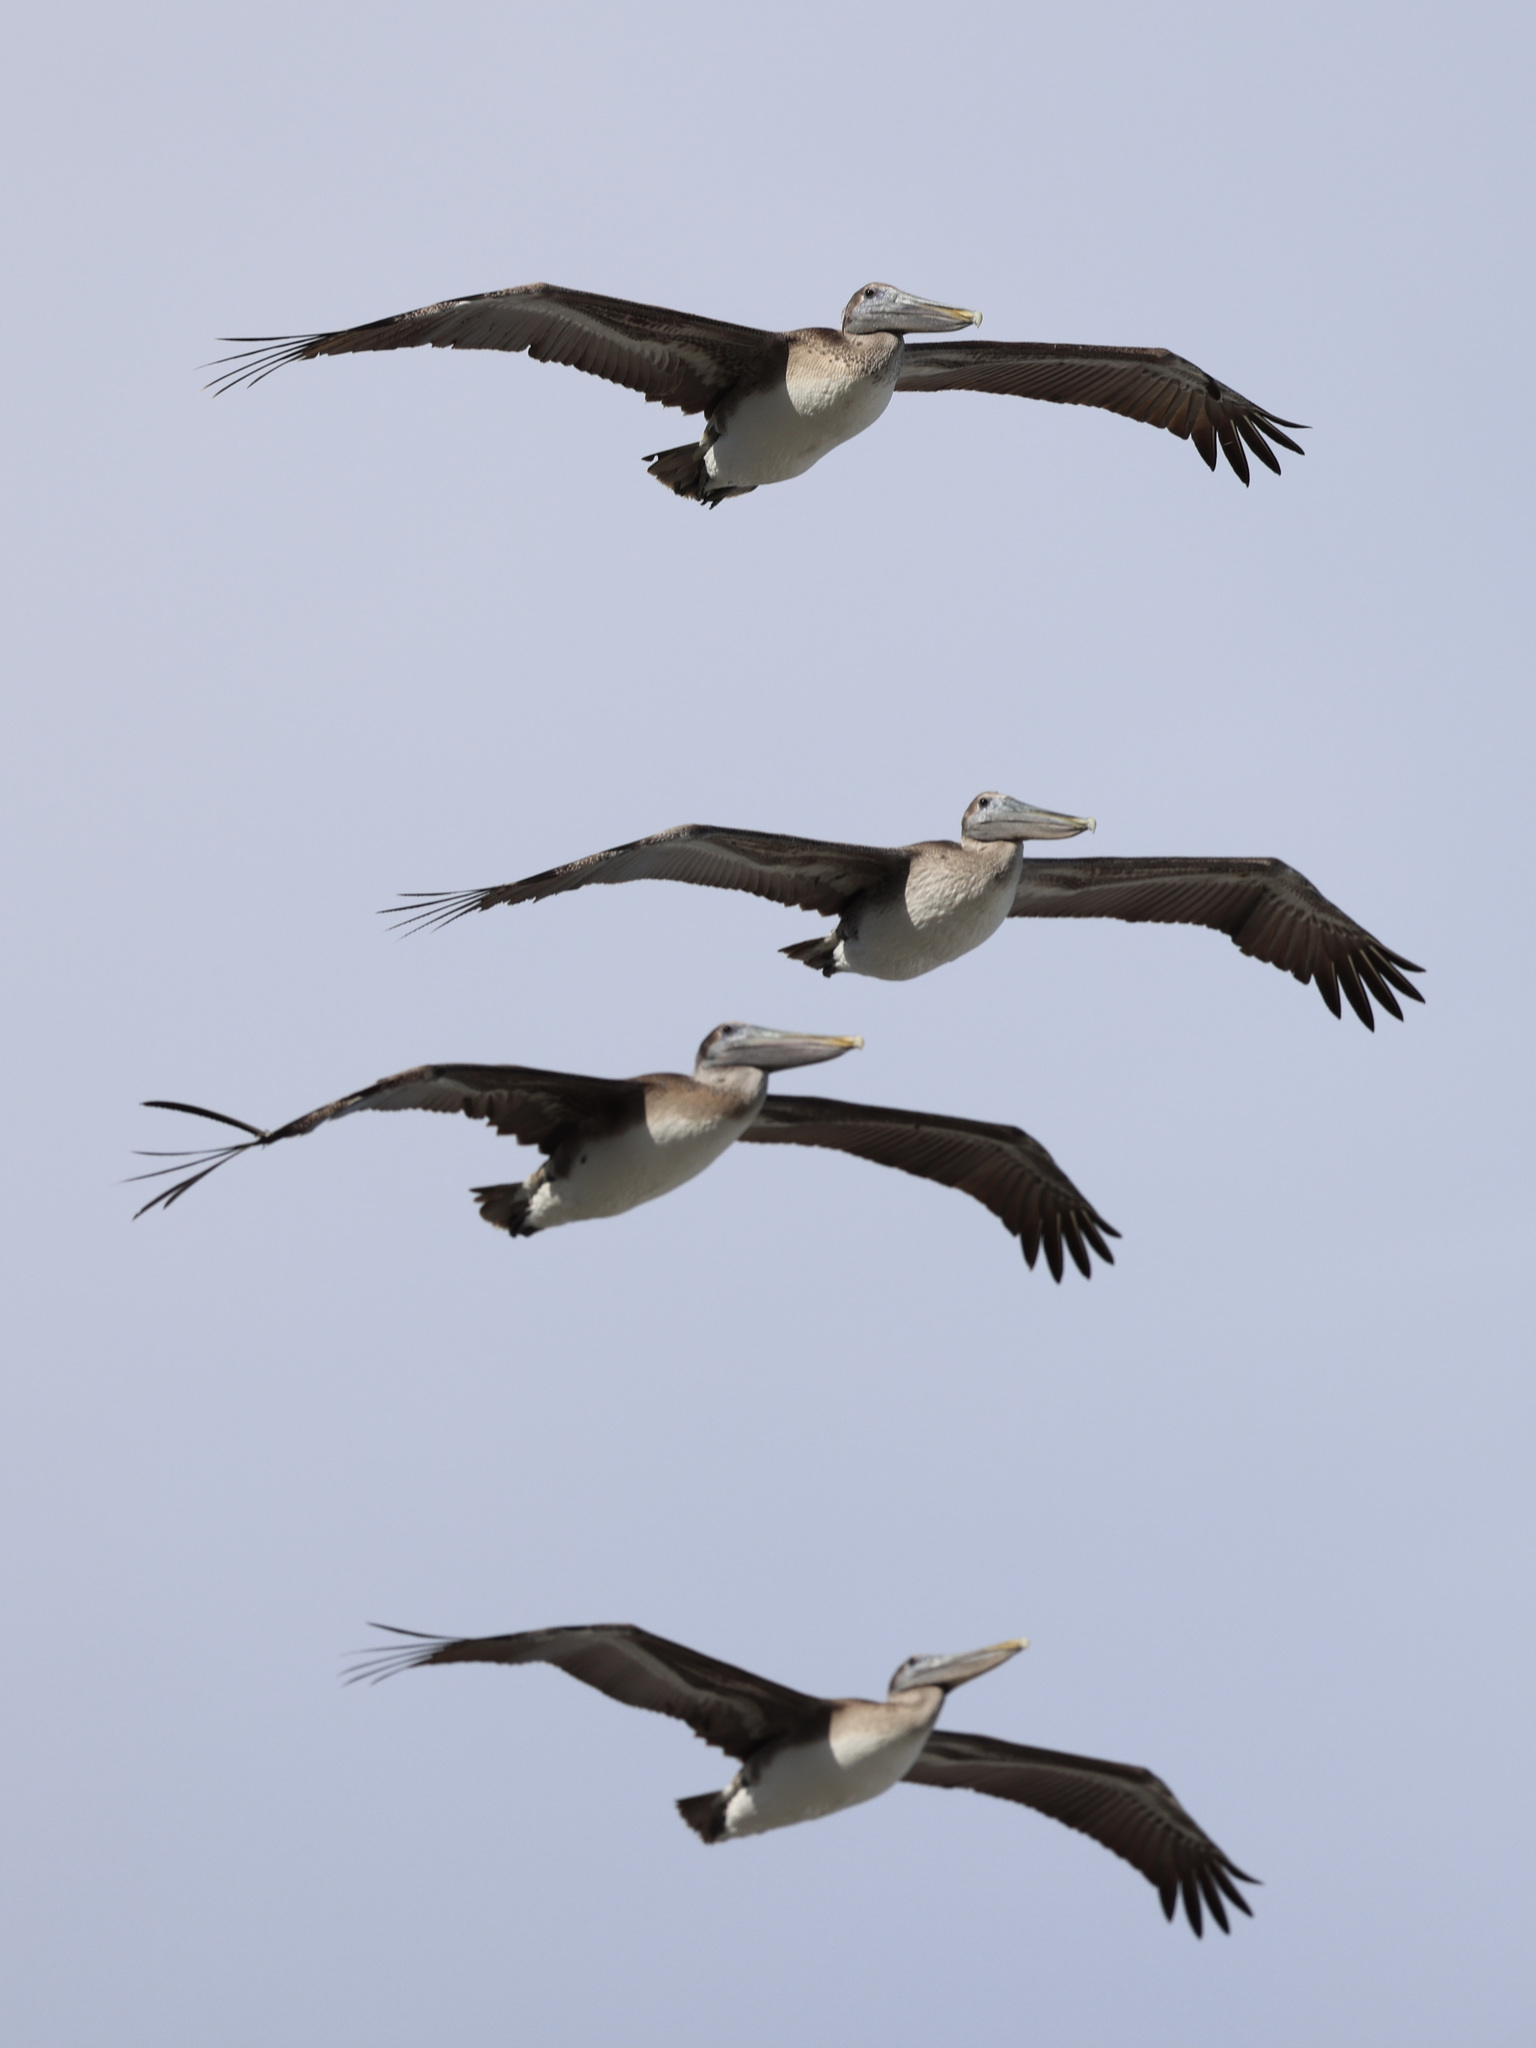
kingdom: Animalia
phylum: Chordata
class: Aves
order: Pelecaniformes
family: Pelecanidae
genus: Pelecanus
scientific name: Pelecanus occidentalis
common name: Brown pelican
